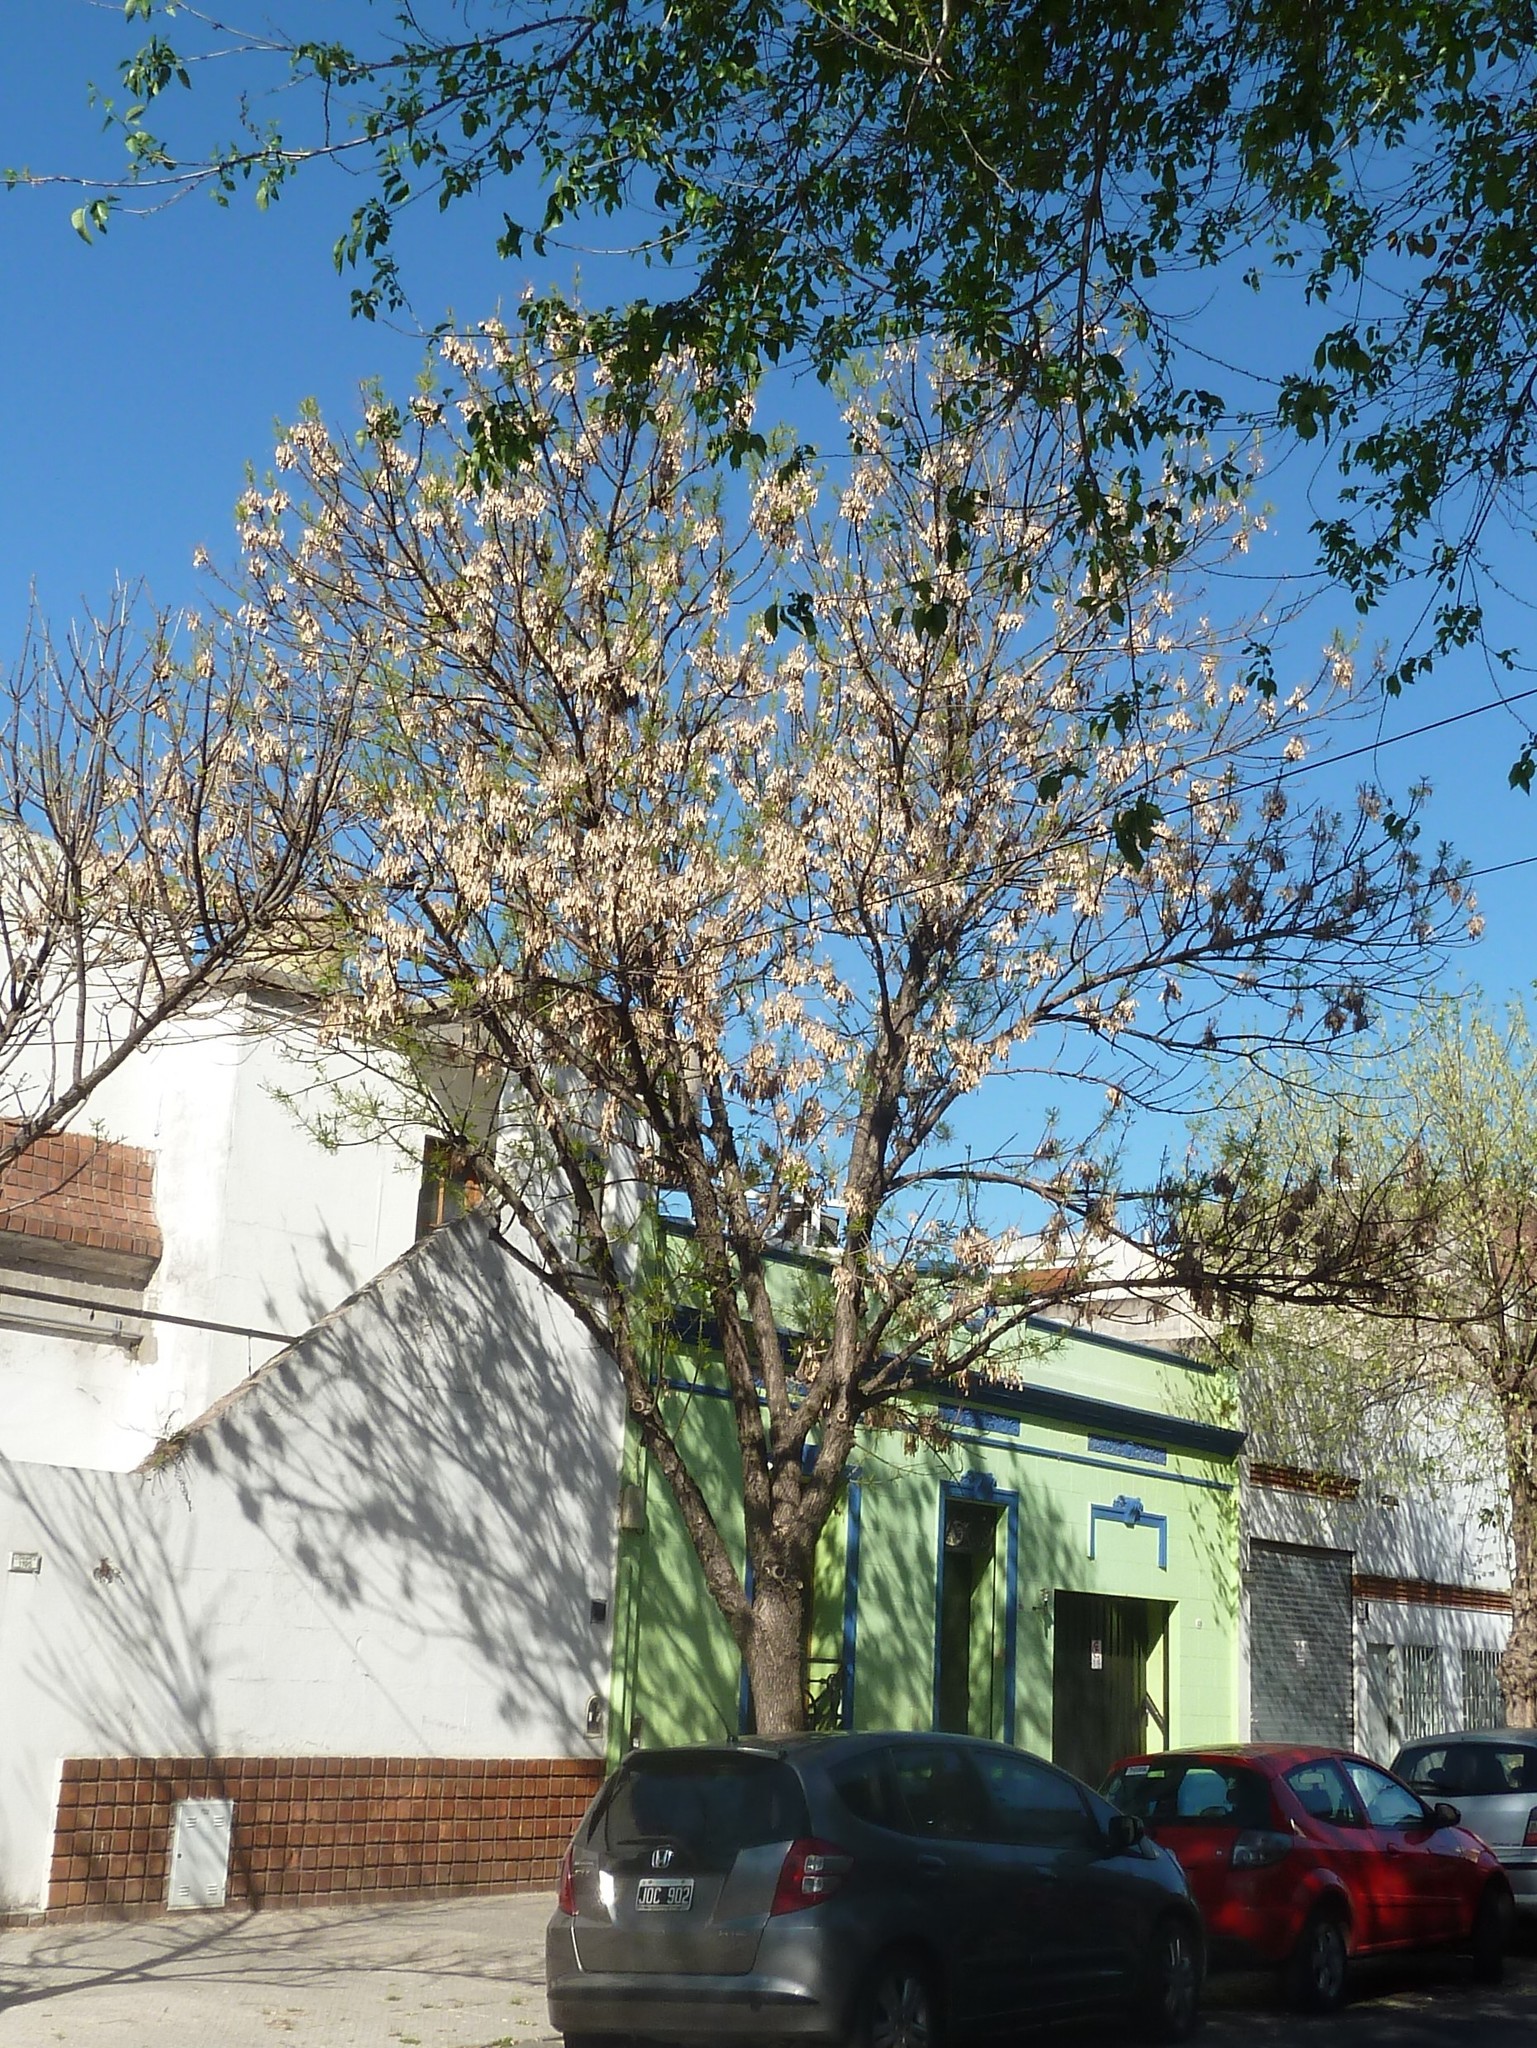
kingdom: Plantae
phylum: Tracheophyta
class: Magnoliopsida
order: Lamiales
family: Oleaceae
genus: Fraxinus
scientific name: Fraxinus pennsylvanica
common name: Green ash
